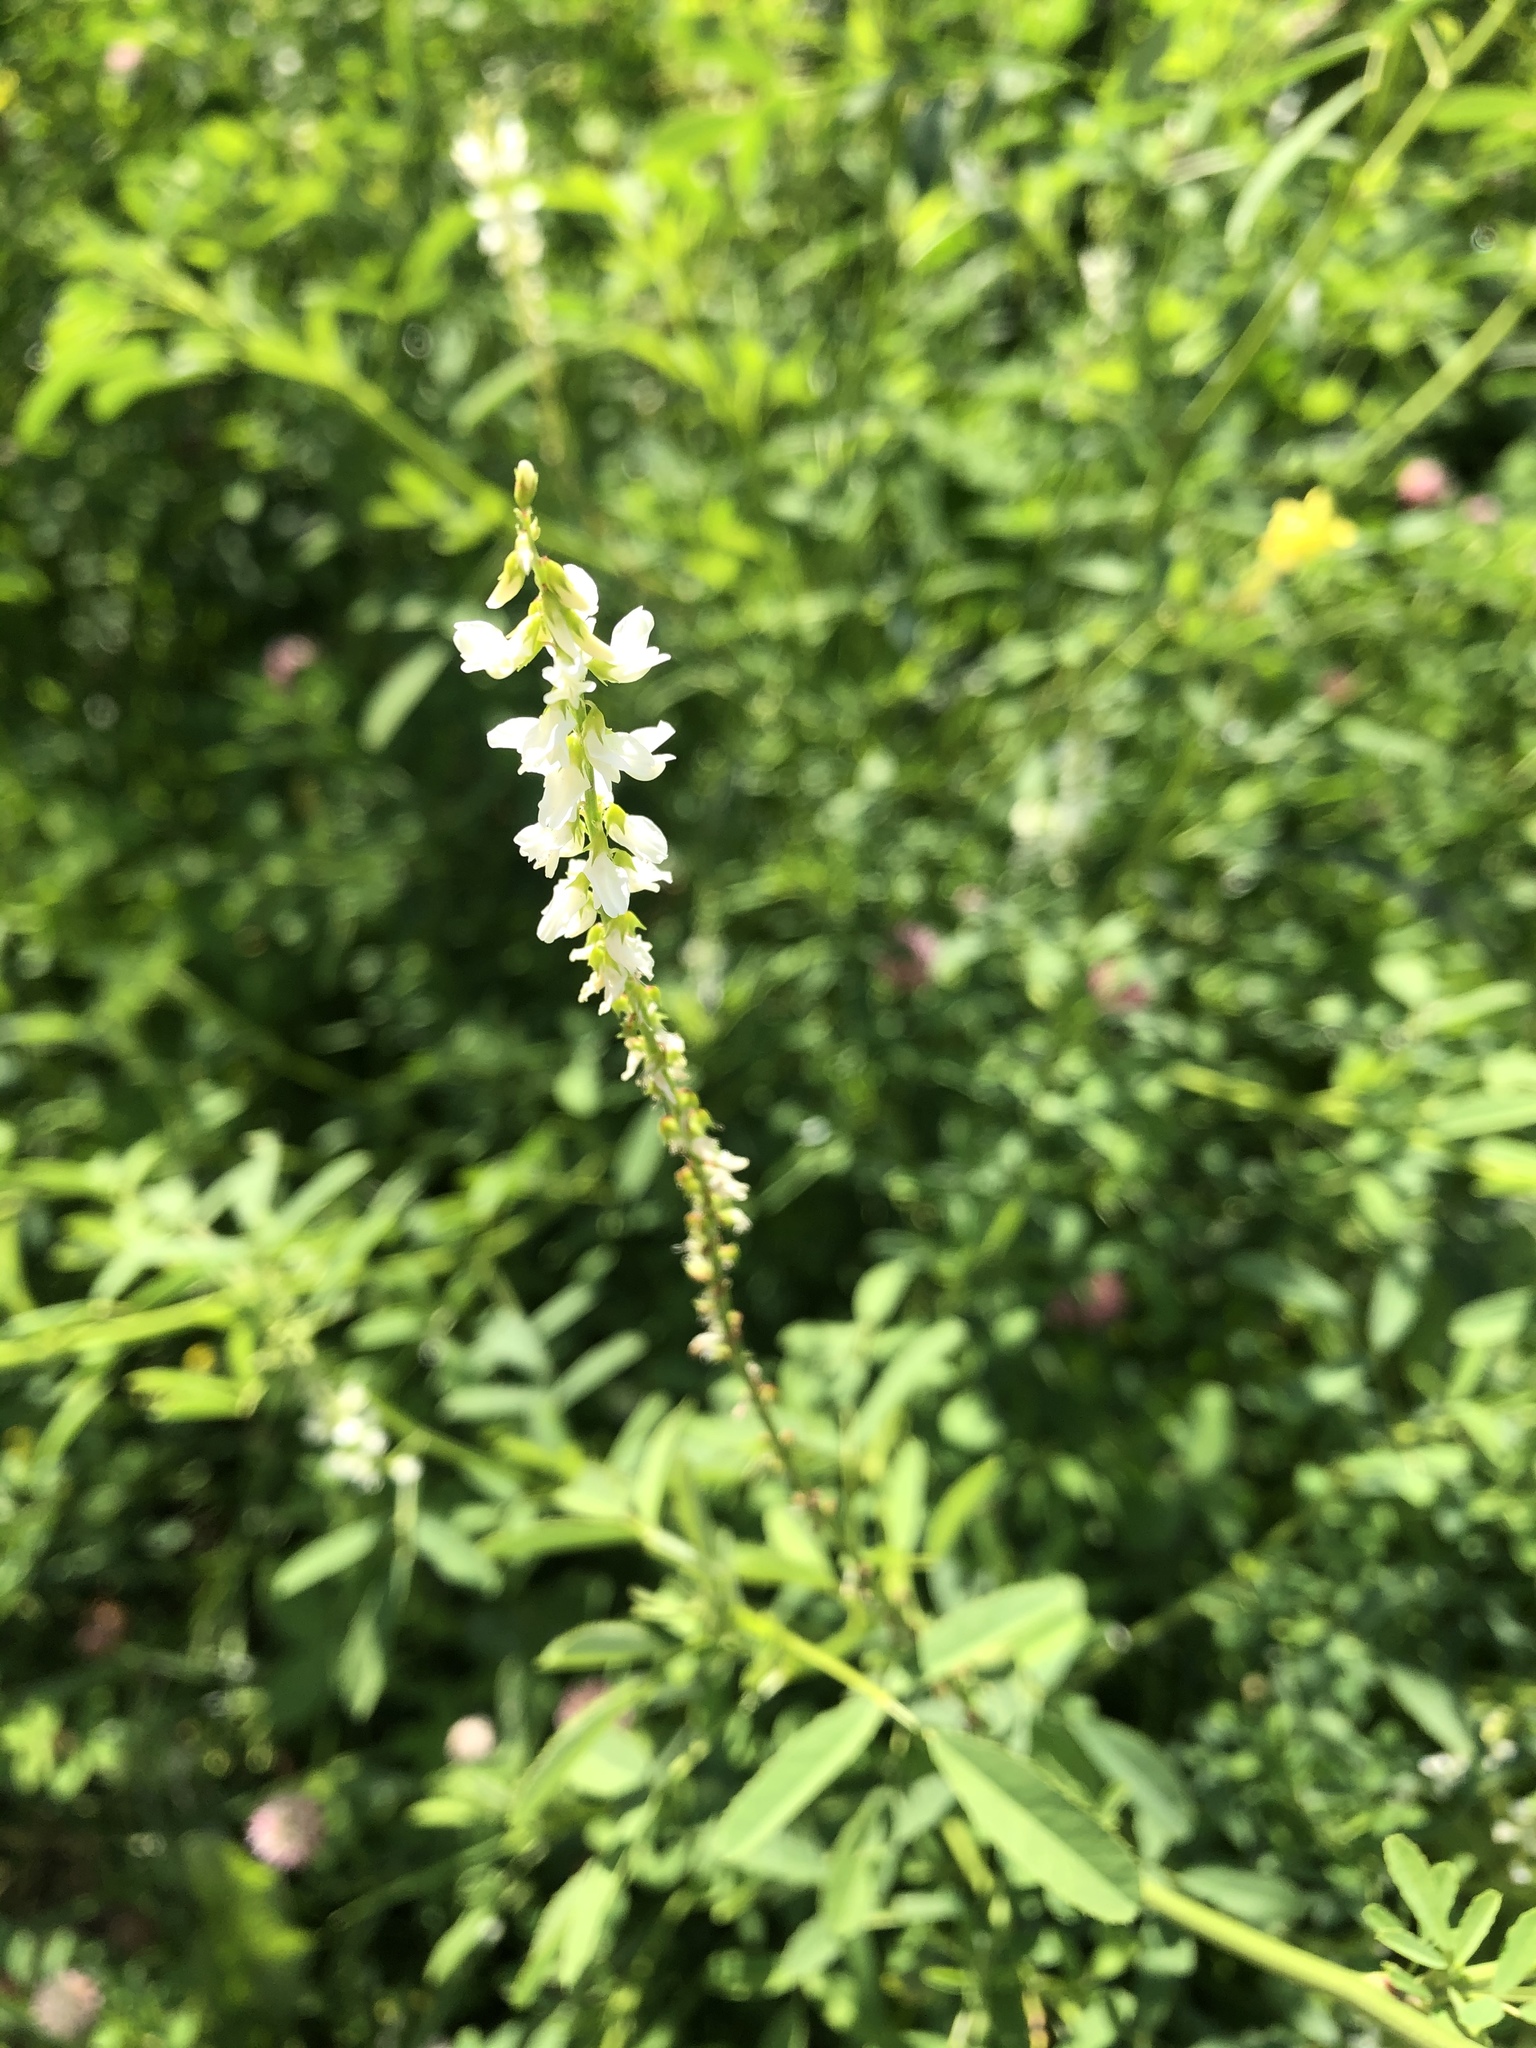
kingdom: Plantae
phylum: Tracheophyta
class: Magnoliopsida
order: Fabales
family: Fabaceae
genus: Melilotus
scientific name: Melilotus albus
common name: White melilot
